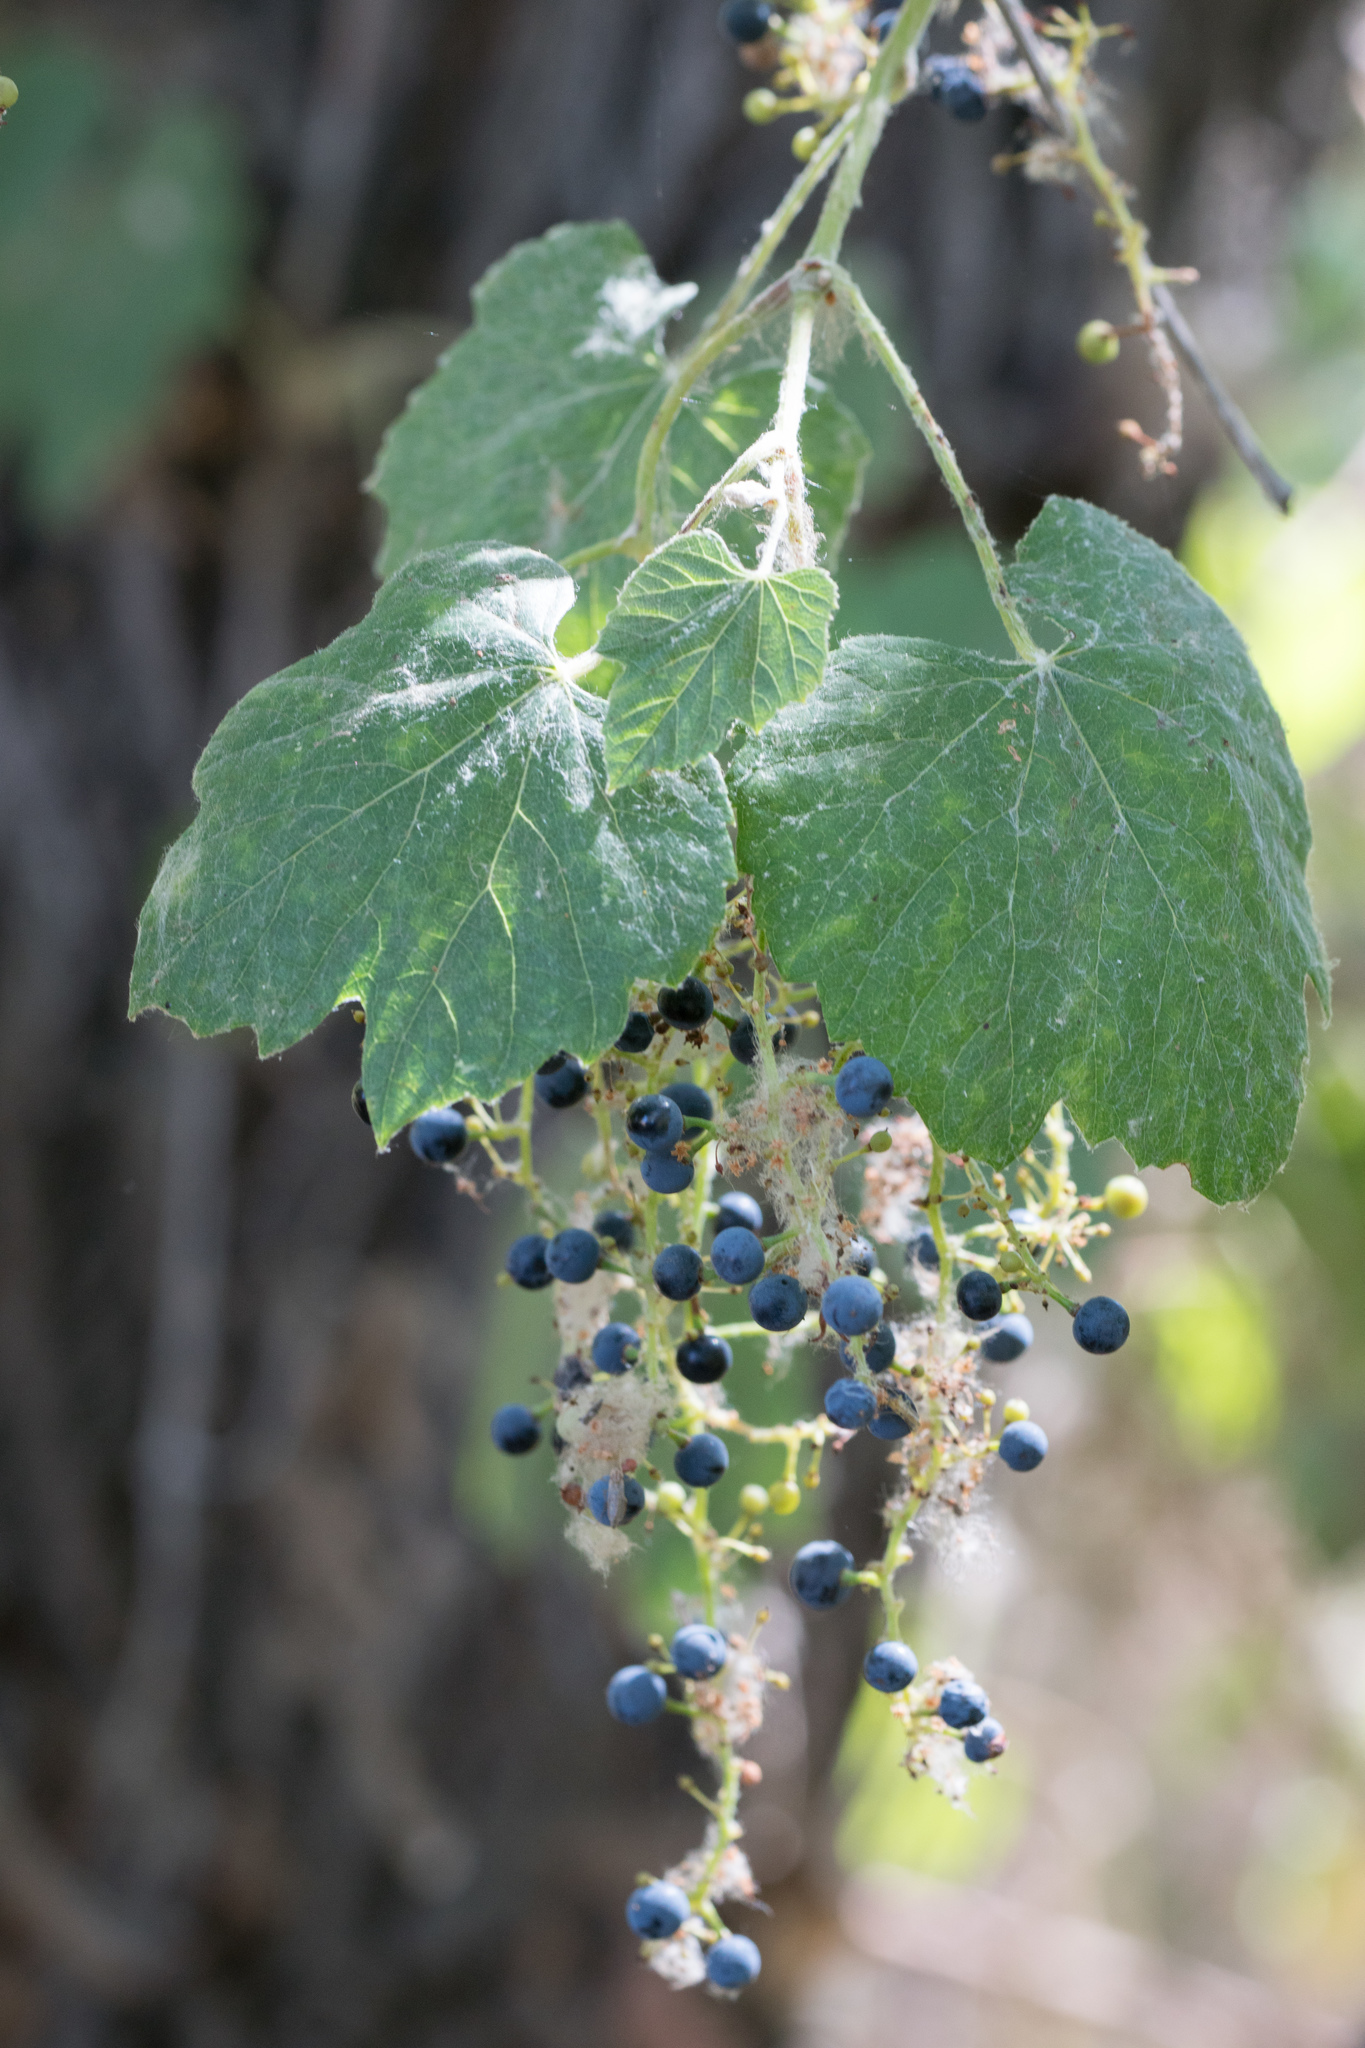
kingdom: Plantae
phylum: Tracheophyta
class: Magnoliopsida
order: Vitales
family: Vitaceae
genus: Vitis
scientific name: Vitis girdiana
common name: Desert wild grape
